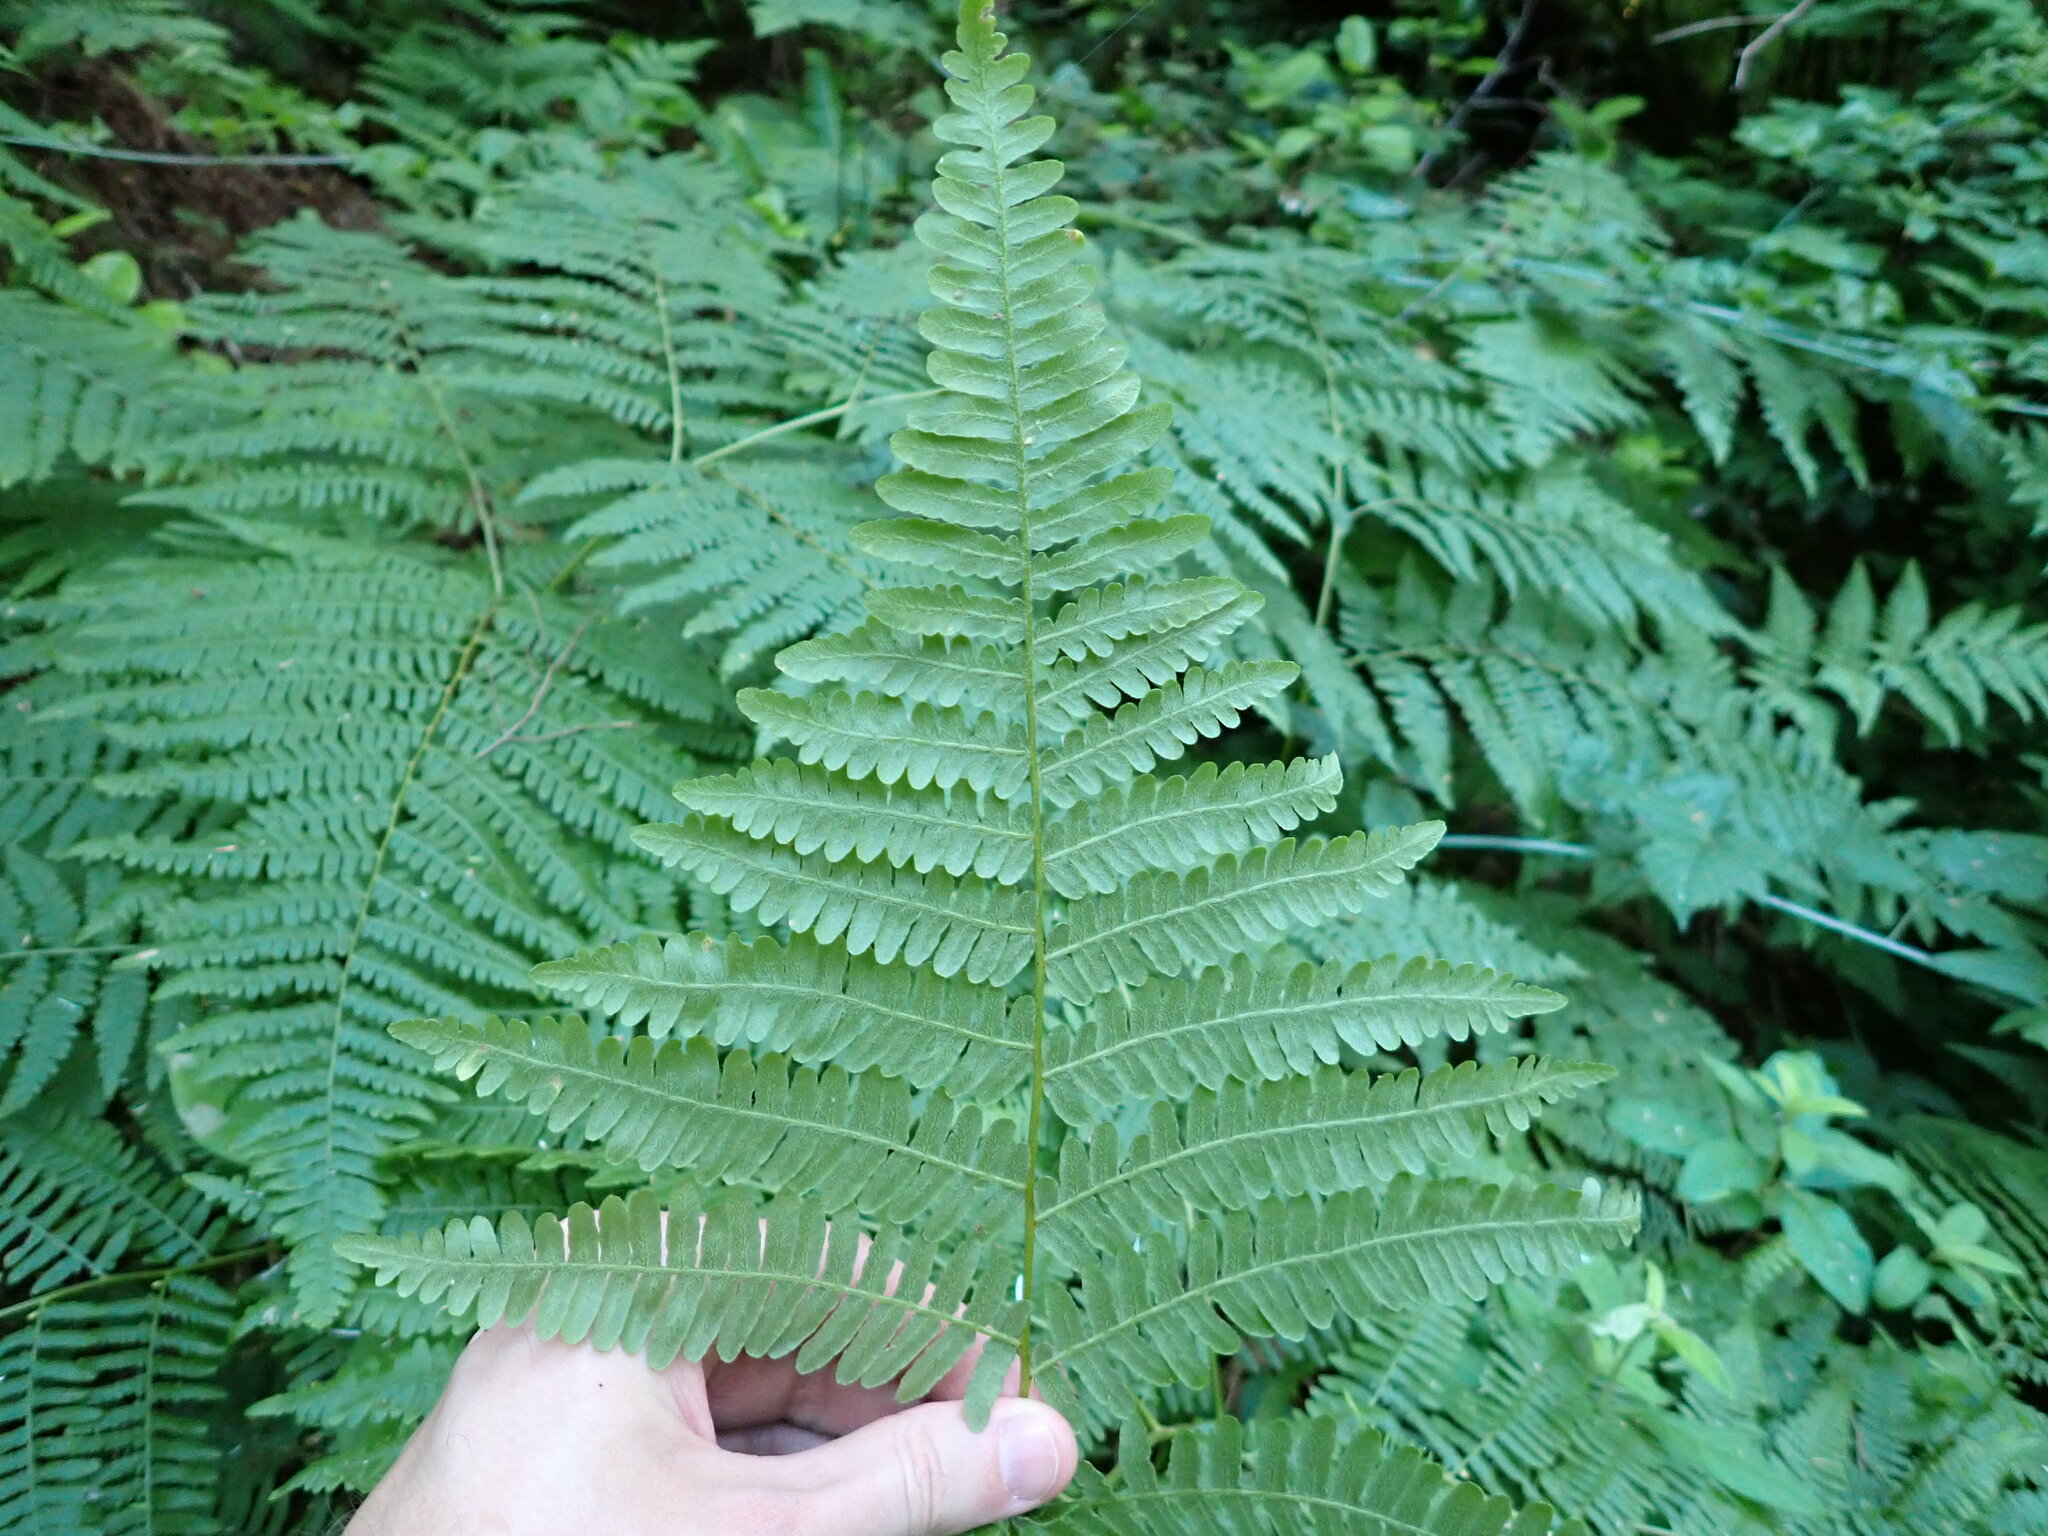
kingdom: Plantae
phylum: Tracheophyta
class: Polypodiopsida
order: Polypodiales
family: Dennstaedtiaceae
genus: Pteridium
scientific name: Pteridium aquilinum
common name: Bracken
